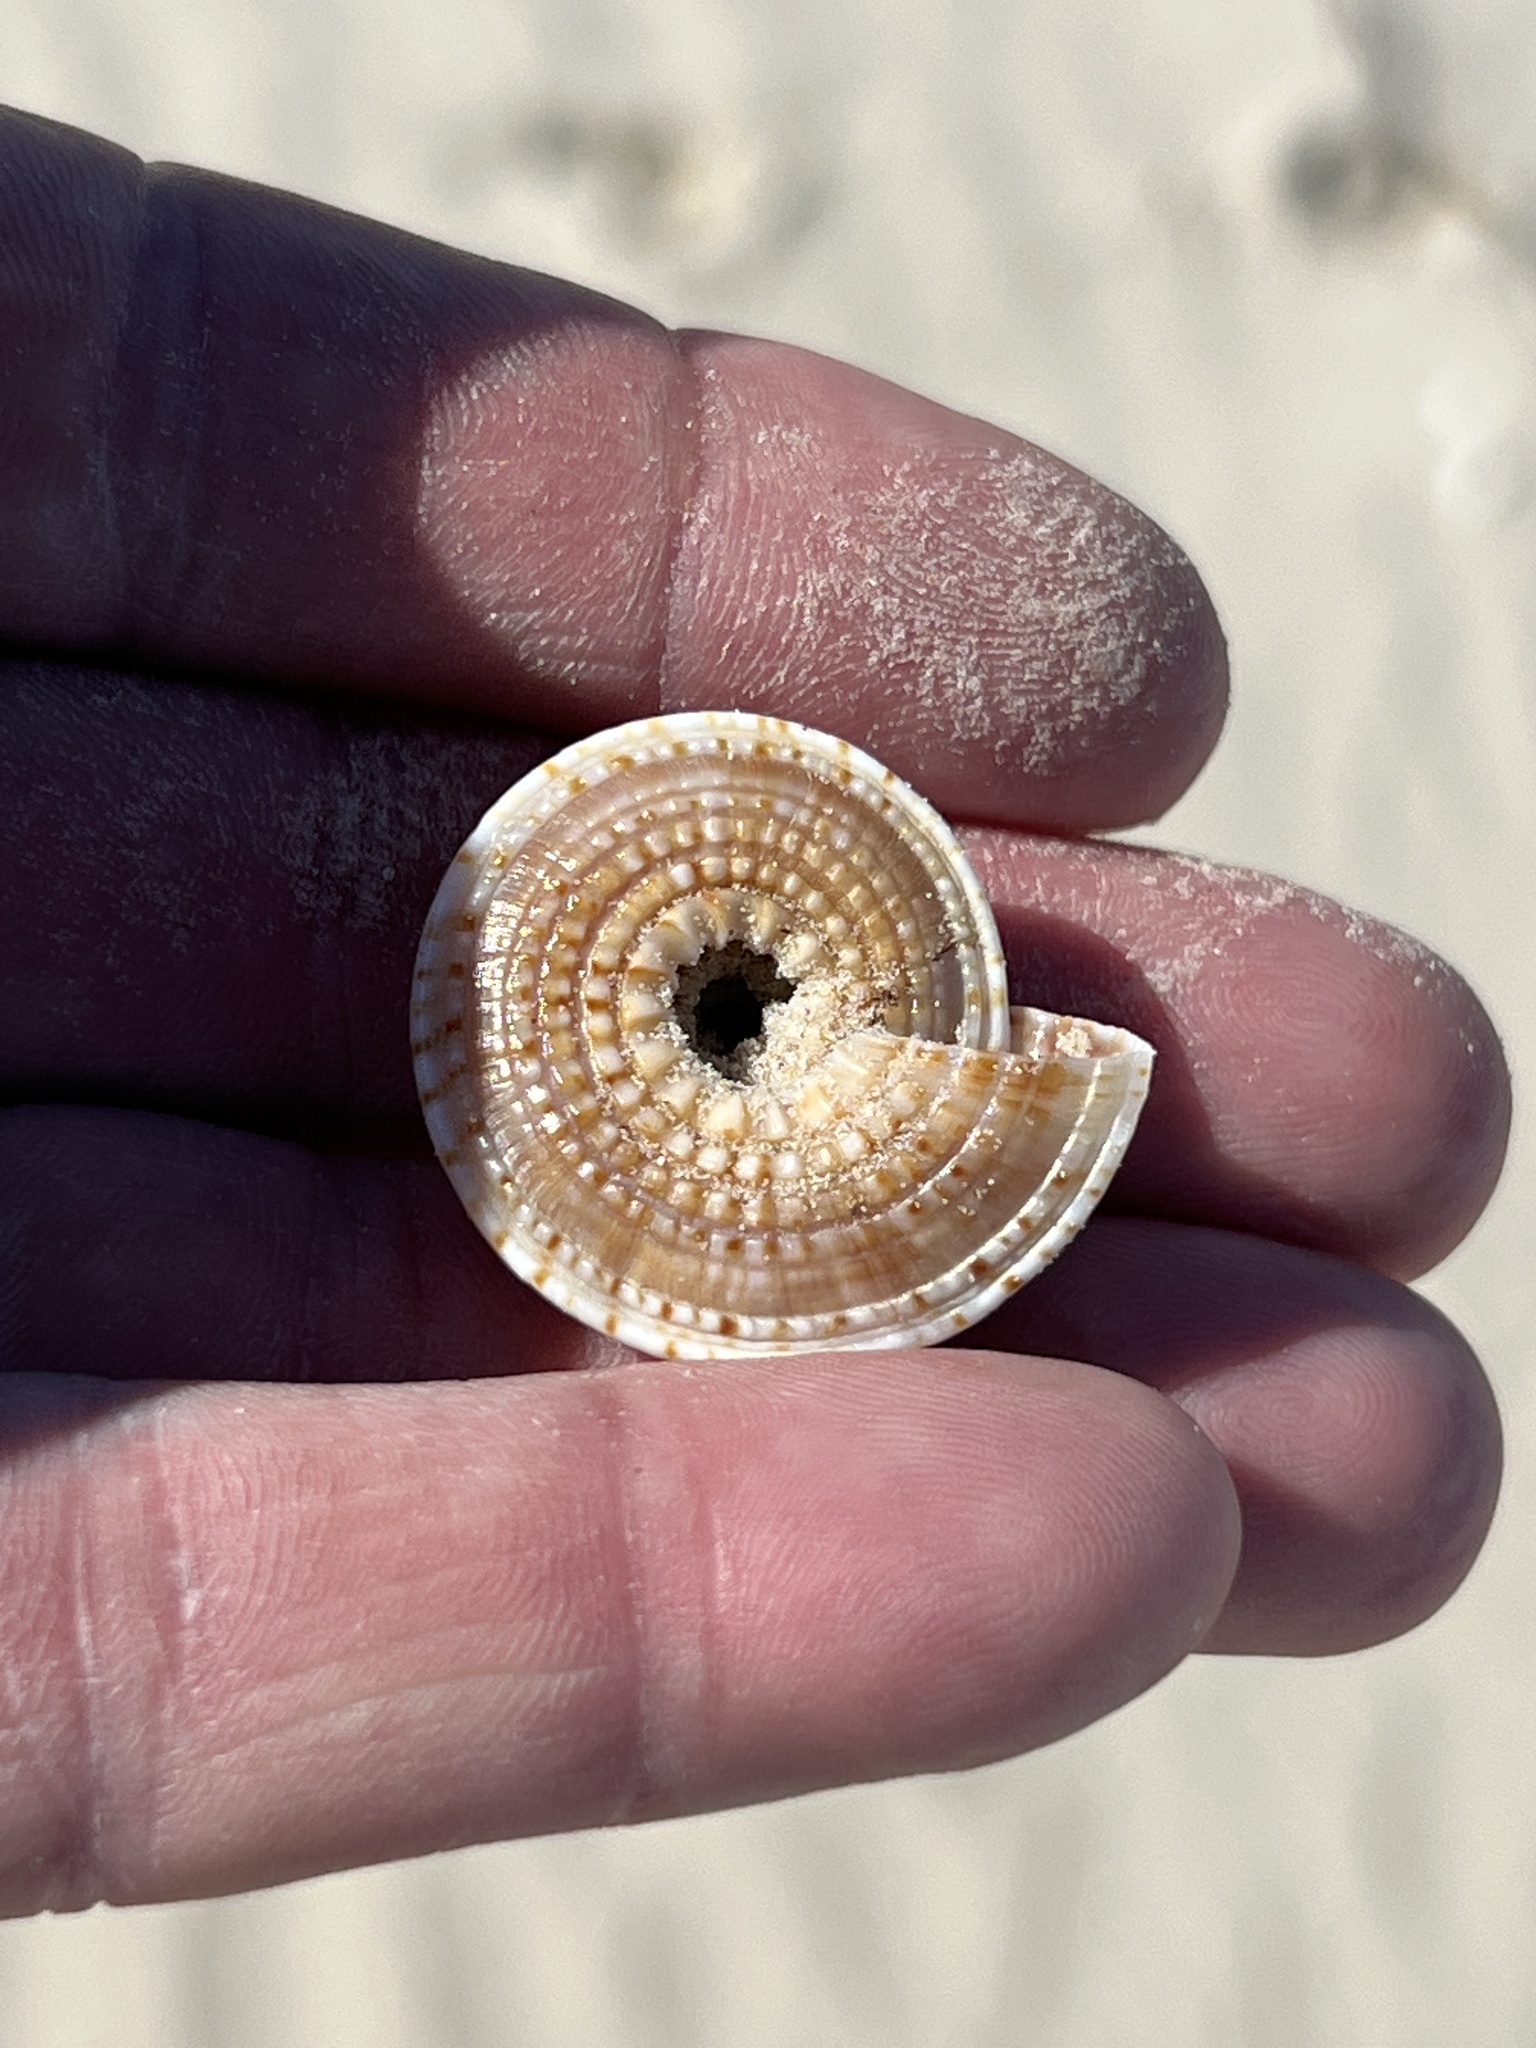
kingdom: Animalia
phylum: Mollusca
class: Gastropoda
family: Architectonicidae
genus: Architectonica
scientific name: Architectonica nobilis
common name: Common sundial
